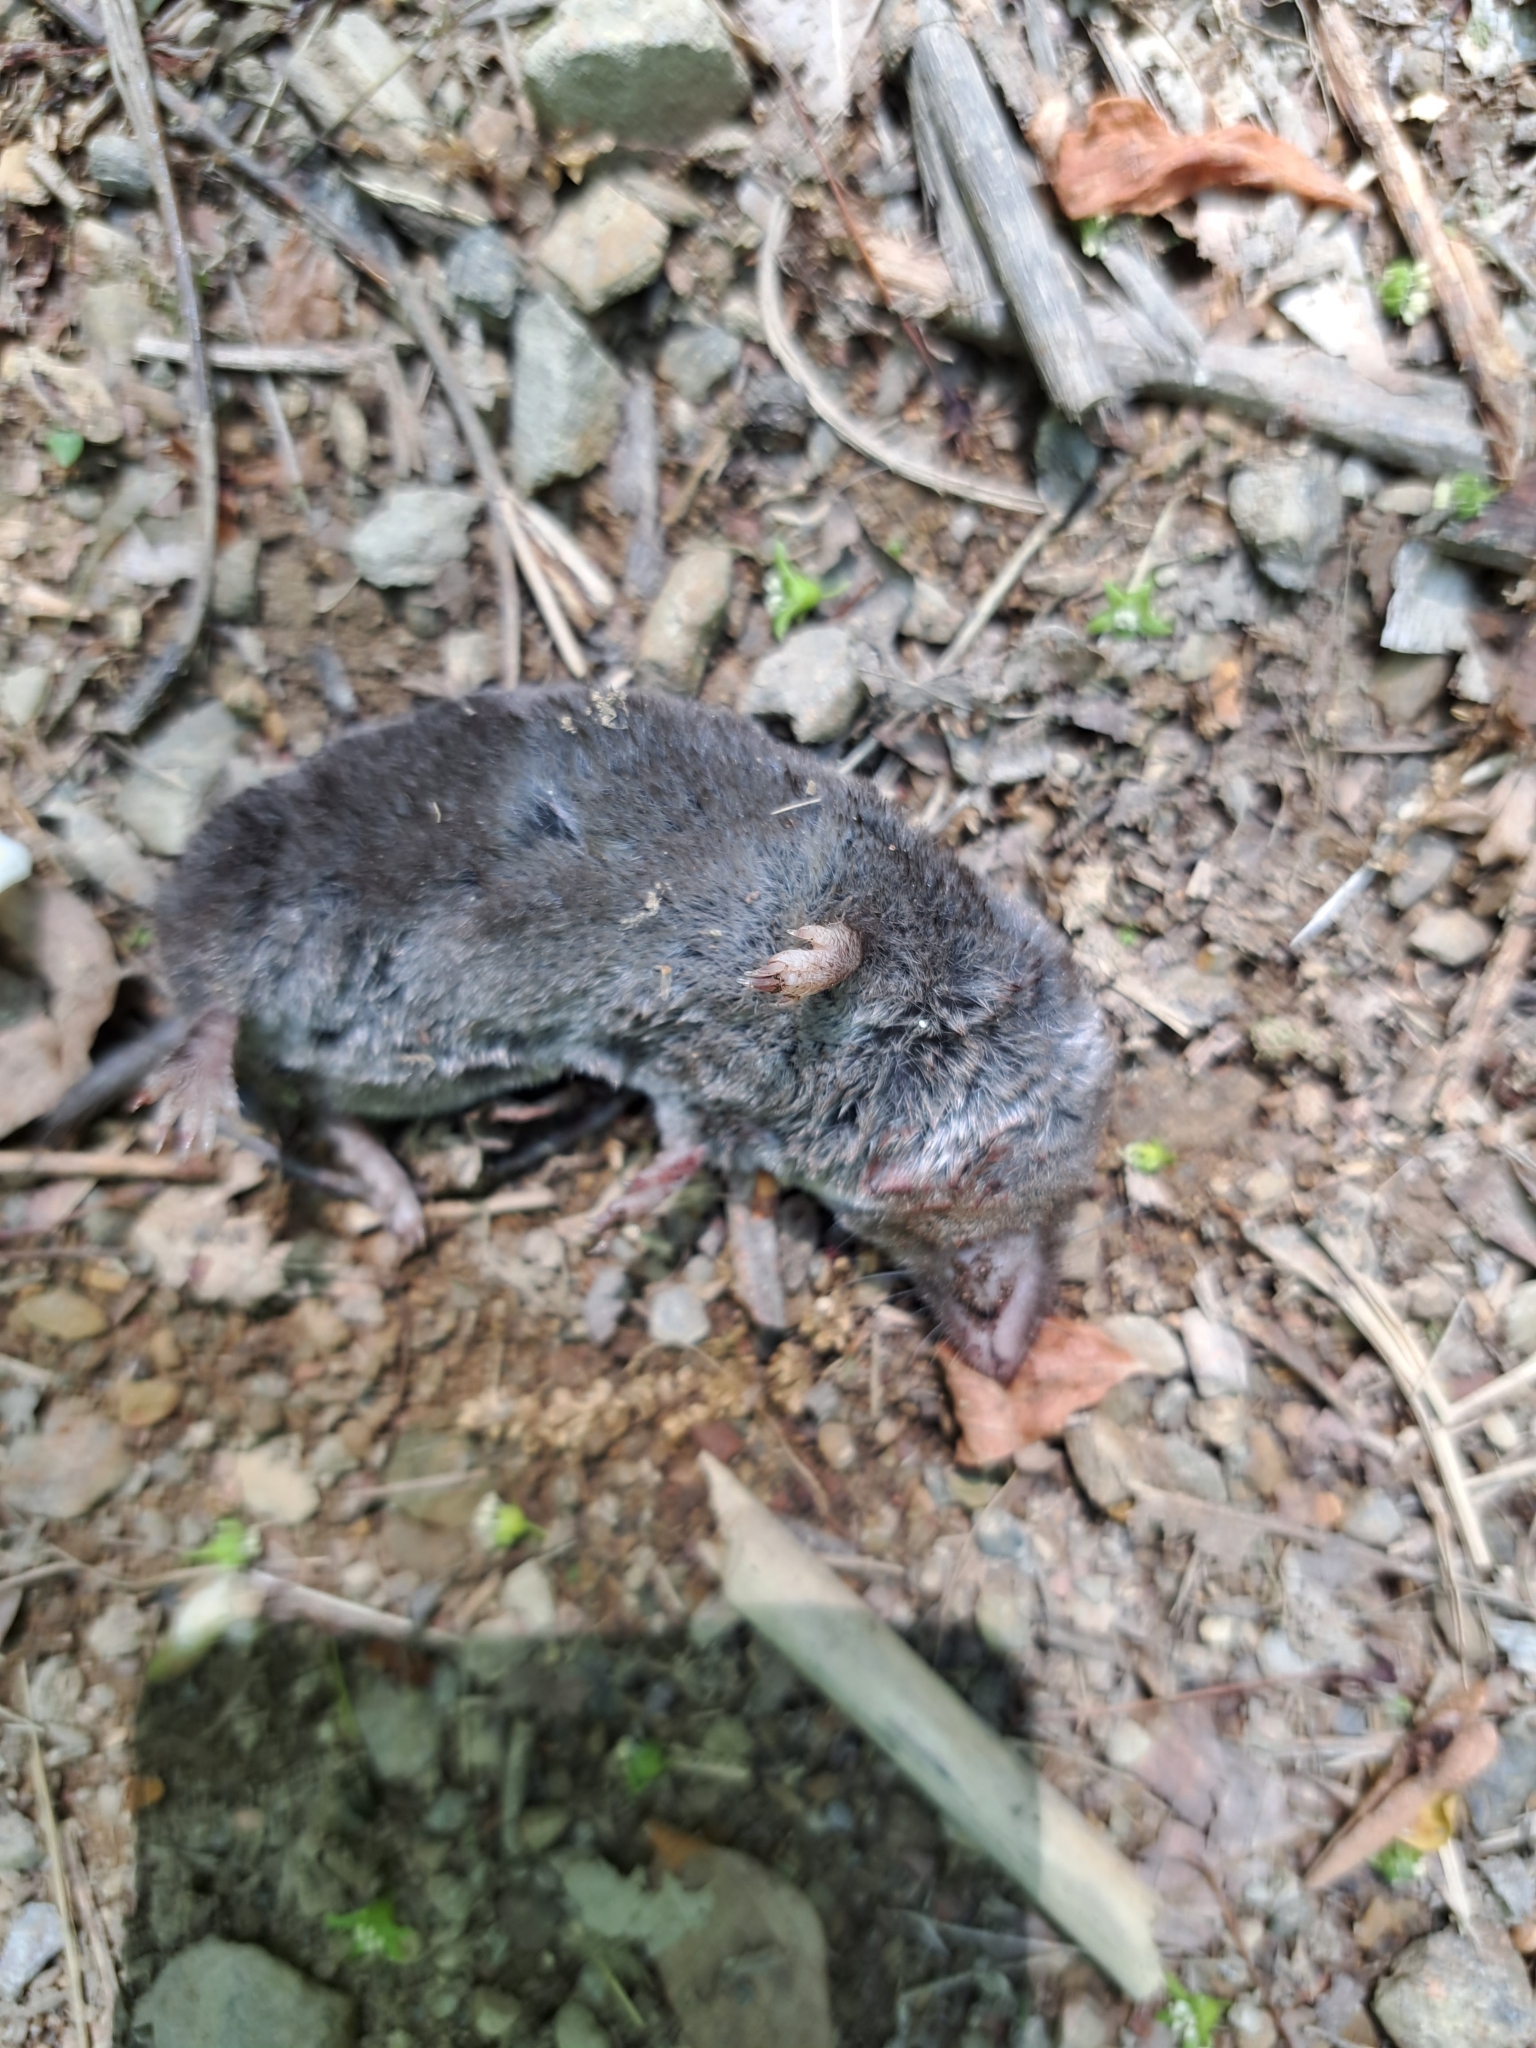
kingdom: Animalia
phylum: Chordata
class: Mammalia
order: Soricomorpha
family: Soricidae
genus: Blarina
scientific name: Blarina brevicauda
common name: Northern short-tailed shrew
